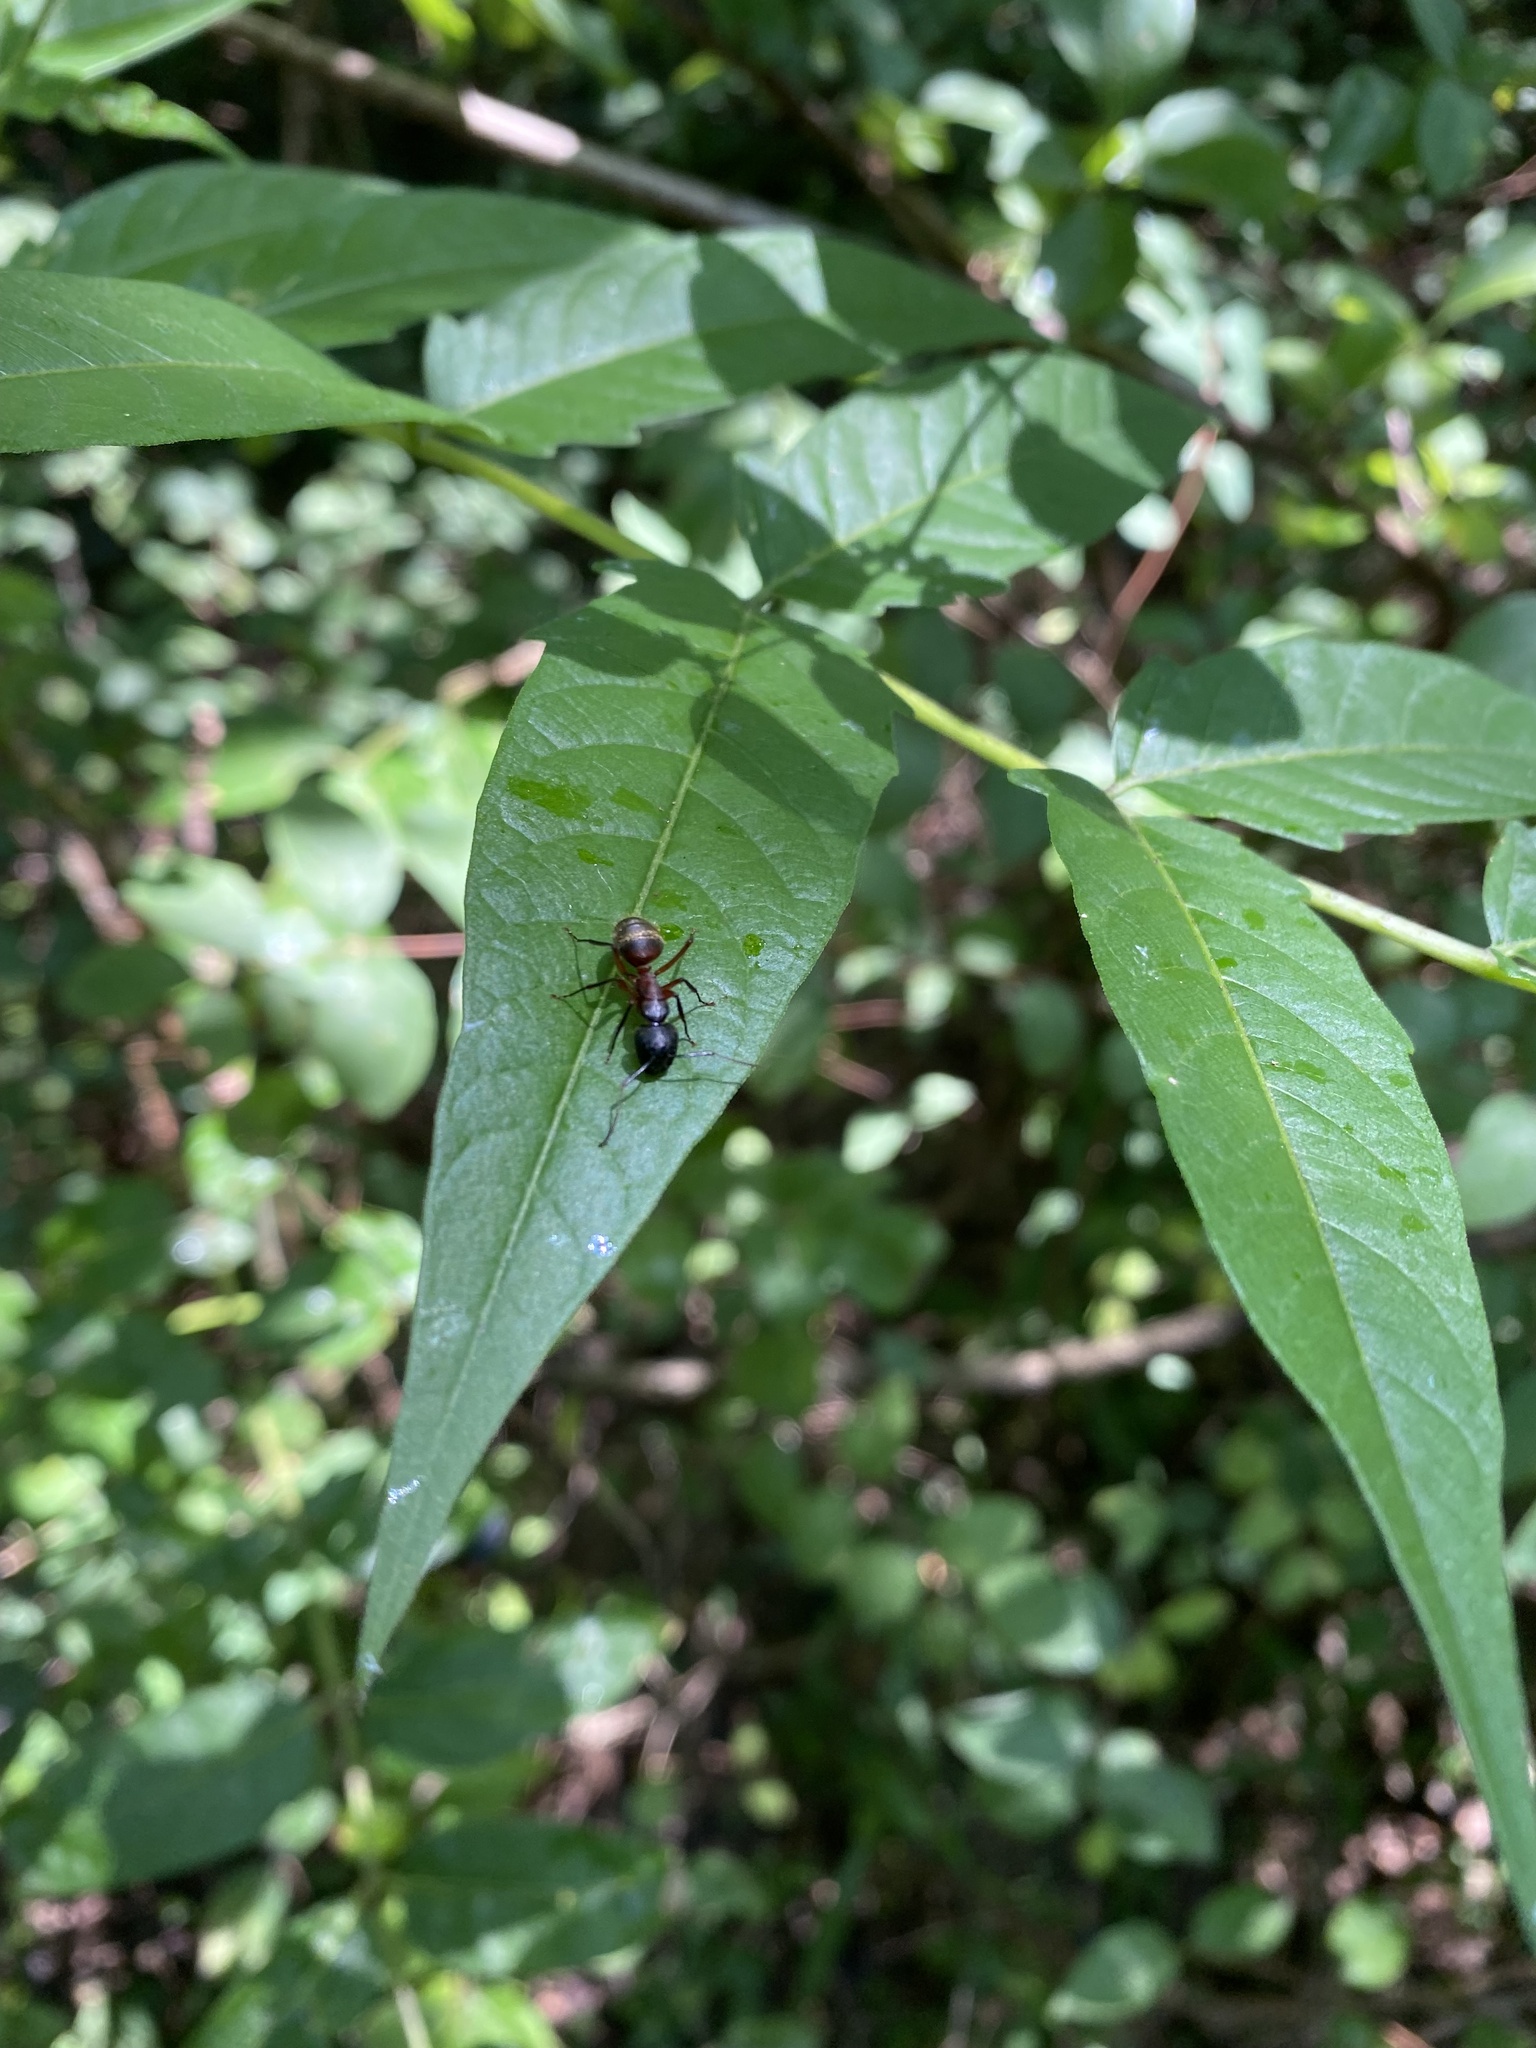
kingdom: Animalia
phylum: Arthropoda
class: Insecta
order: Hymenoptera
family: Formicidae
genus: Camponotus
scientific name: Camponotus chromaiodes
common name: Red carpenter ant
